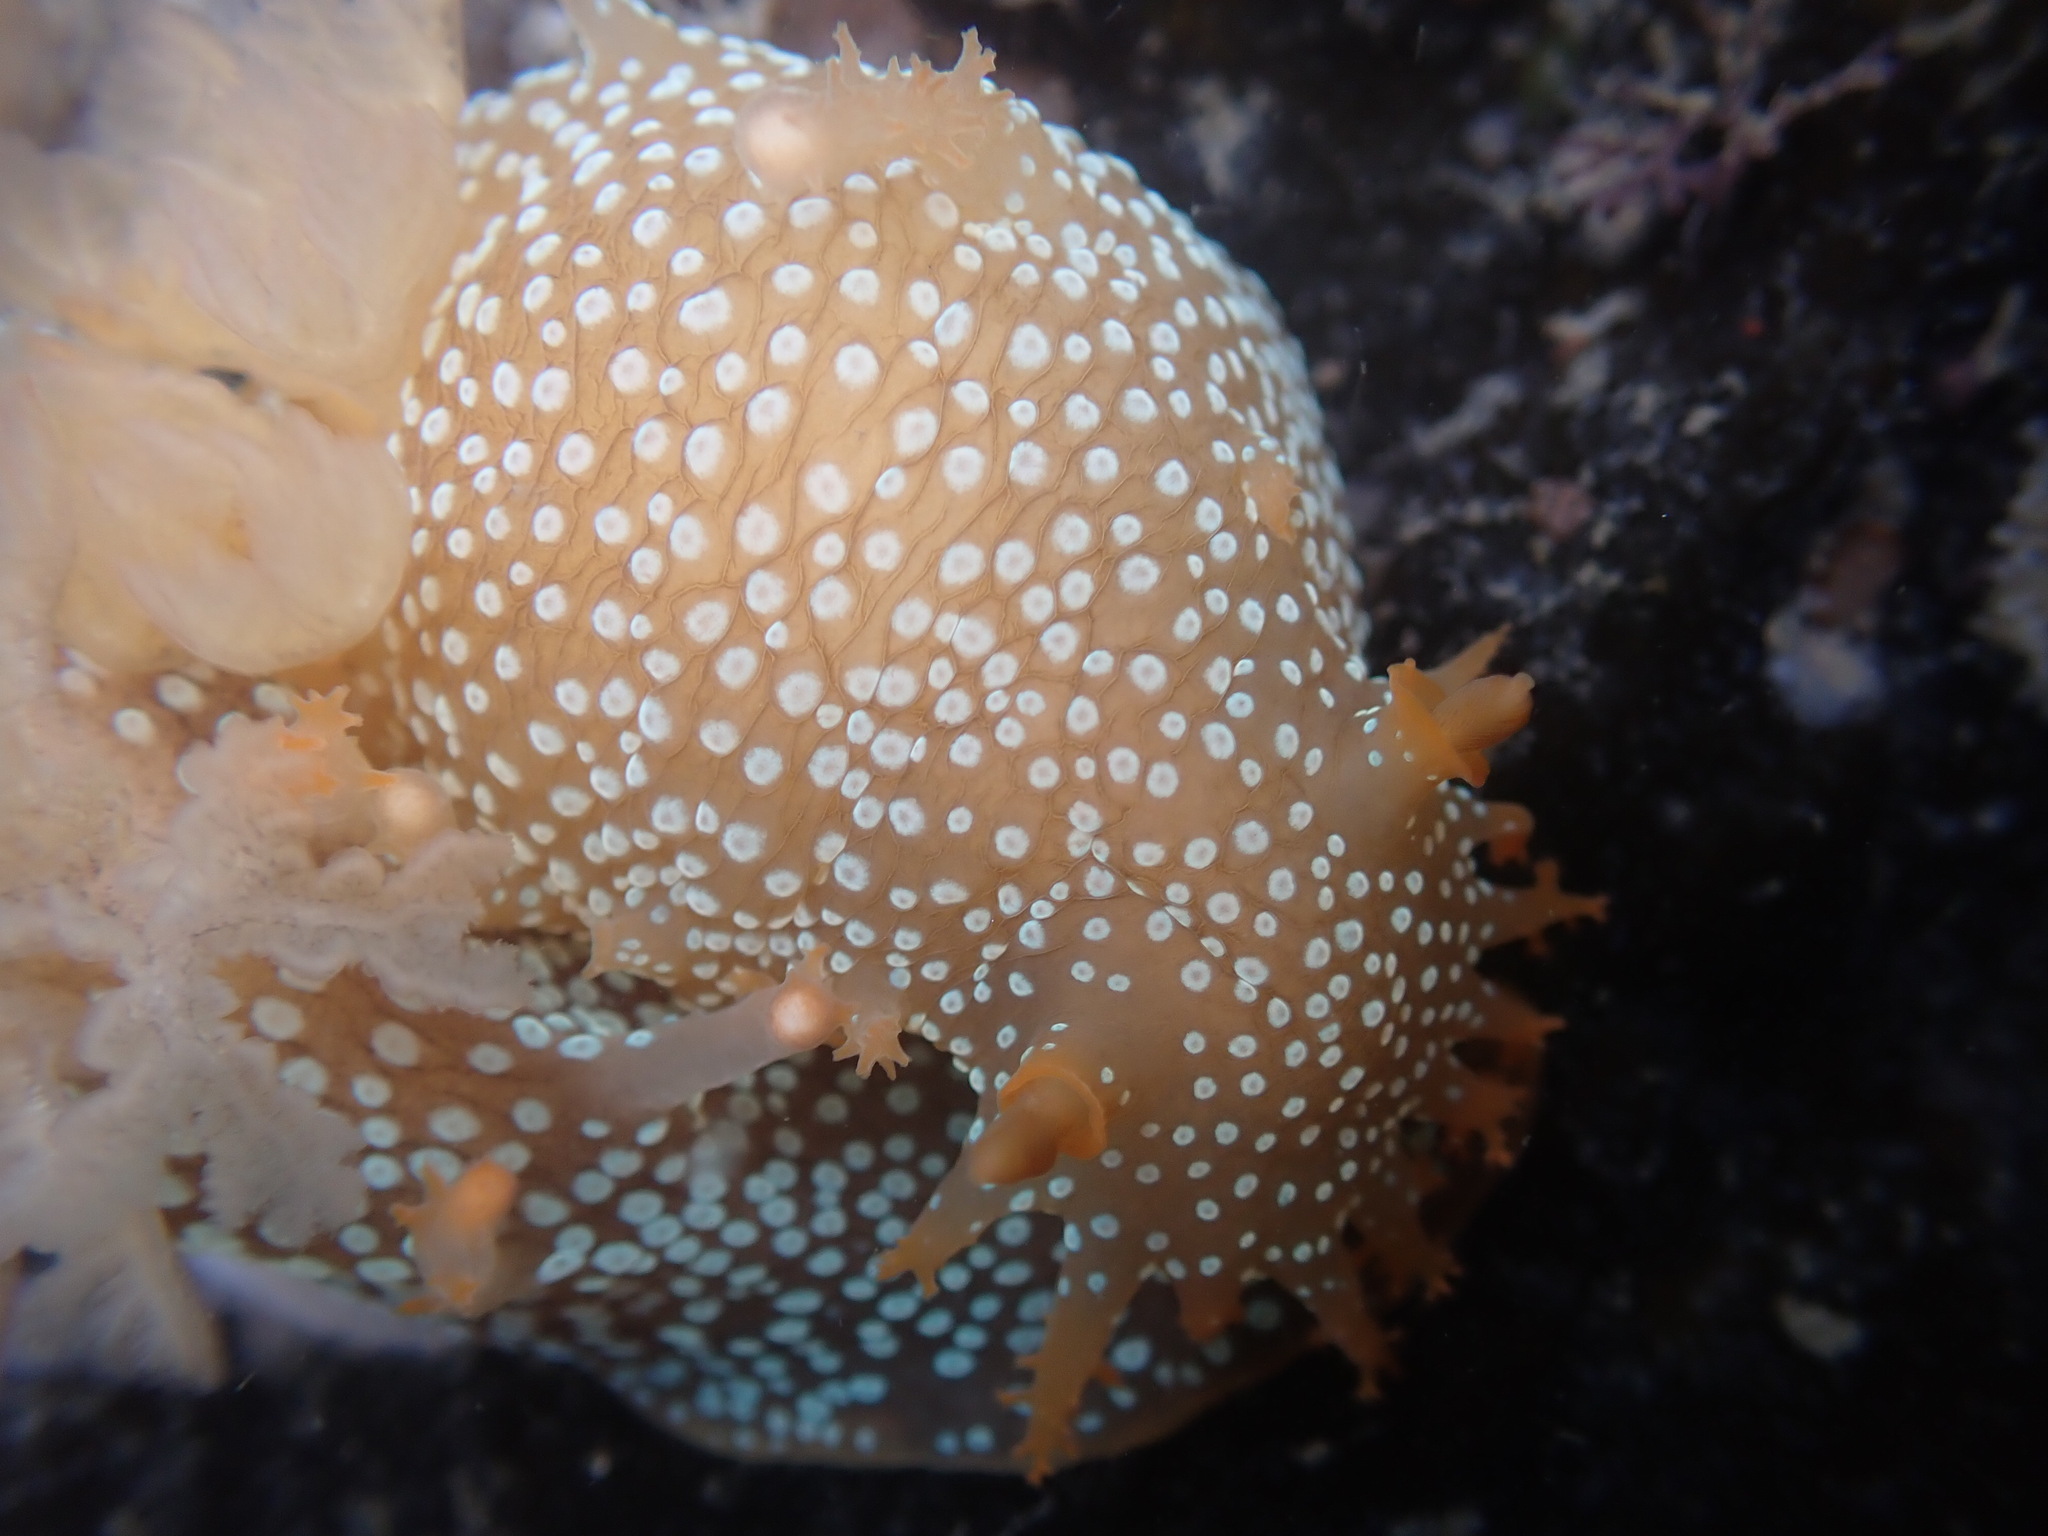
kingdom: Animalia
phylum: Mollusca
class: Gastropoda
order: Nudibranchia
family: Polyceridae
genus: Triopha
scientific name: Triopha maculata
